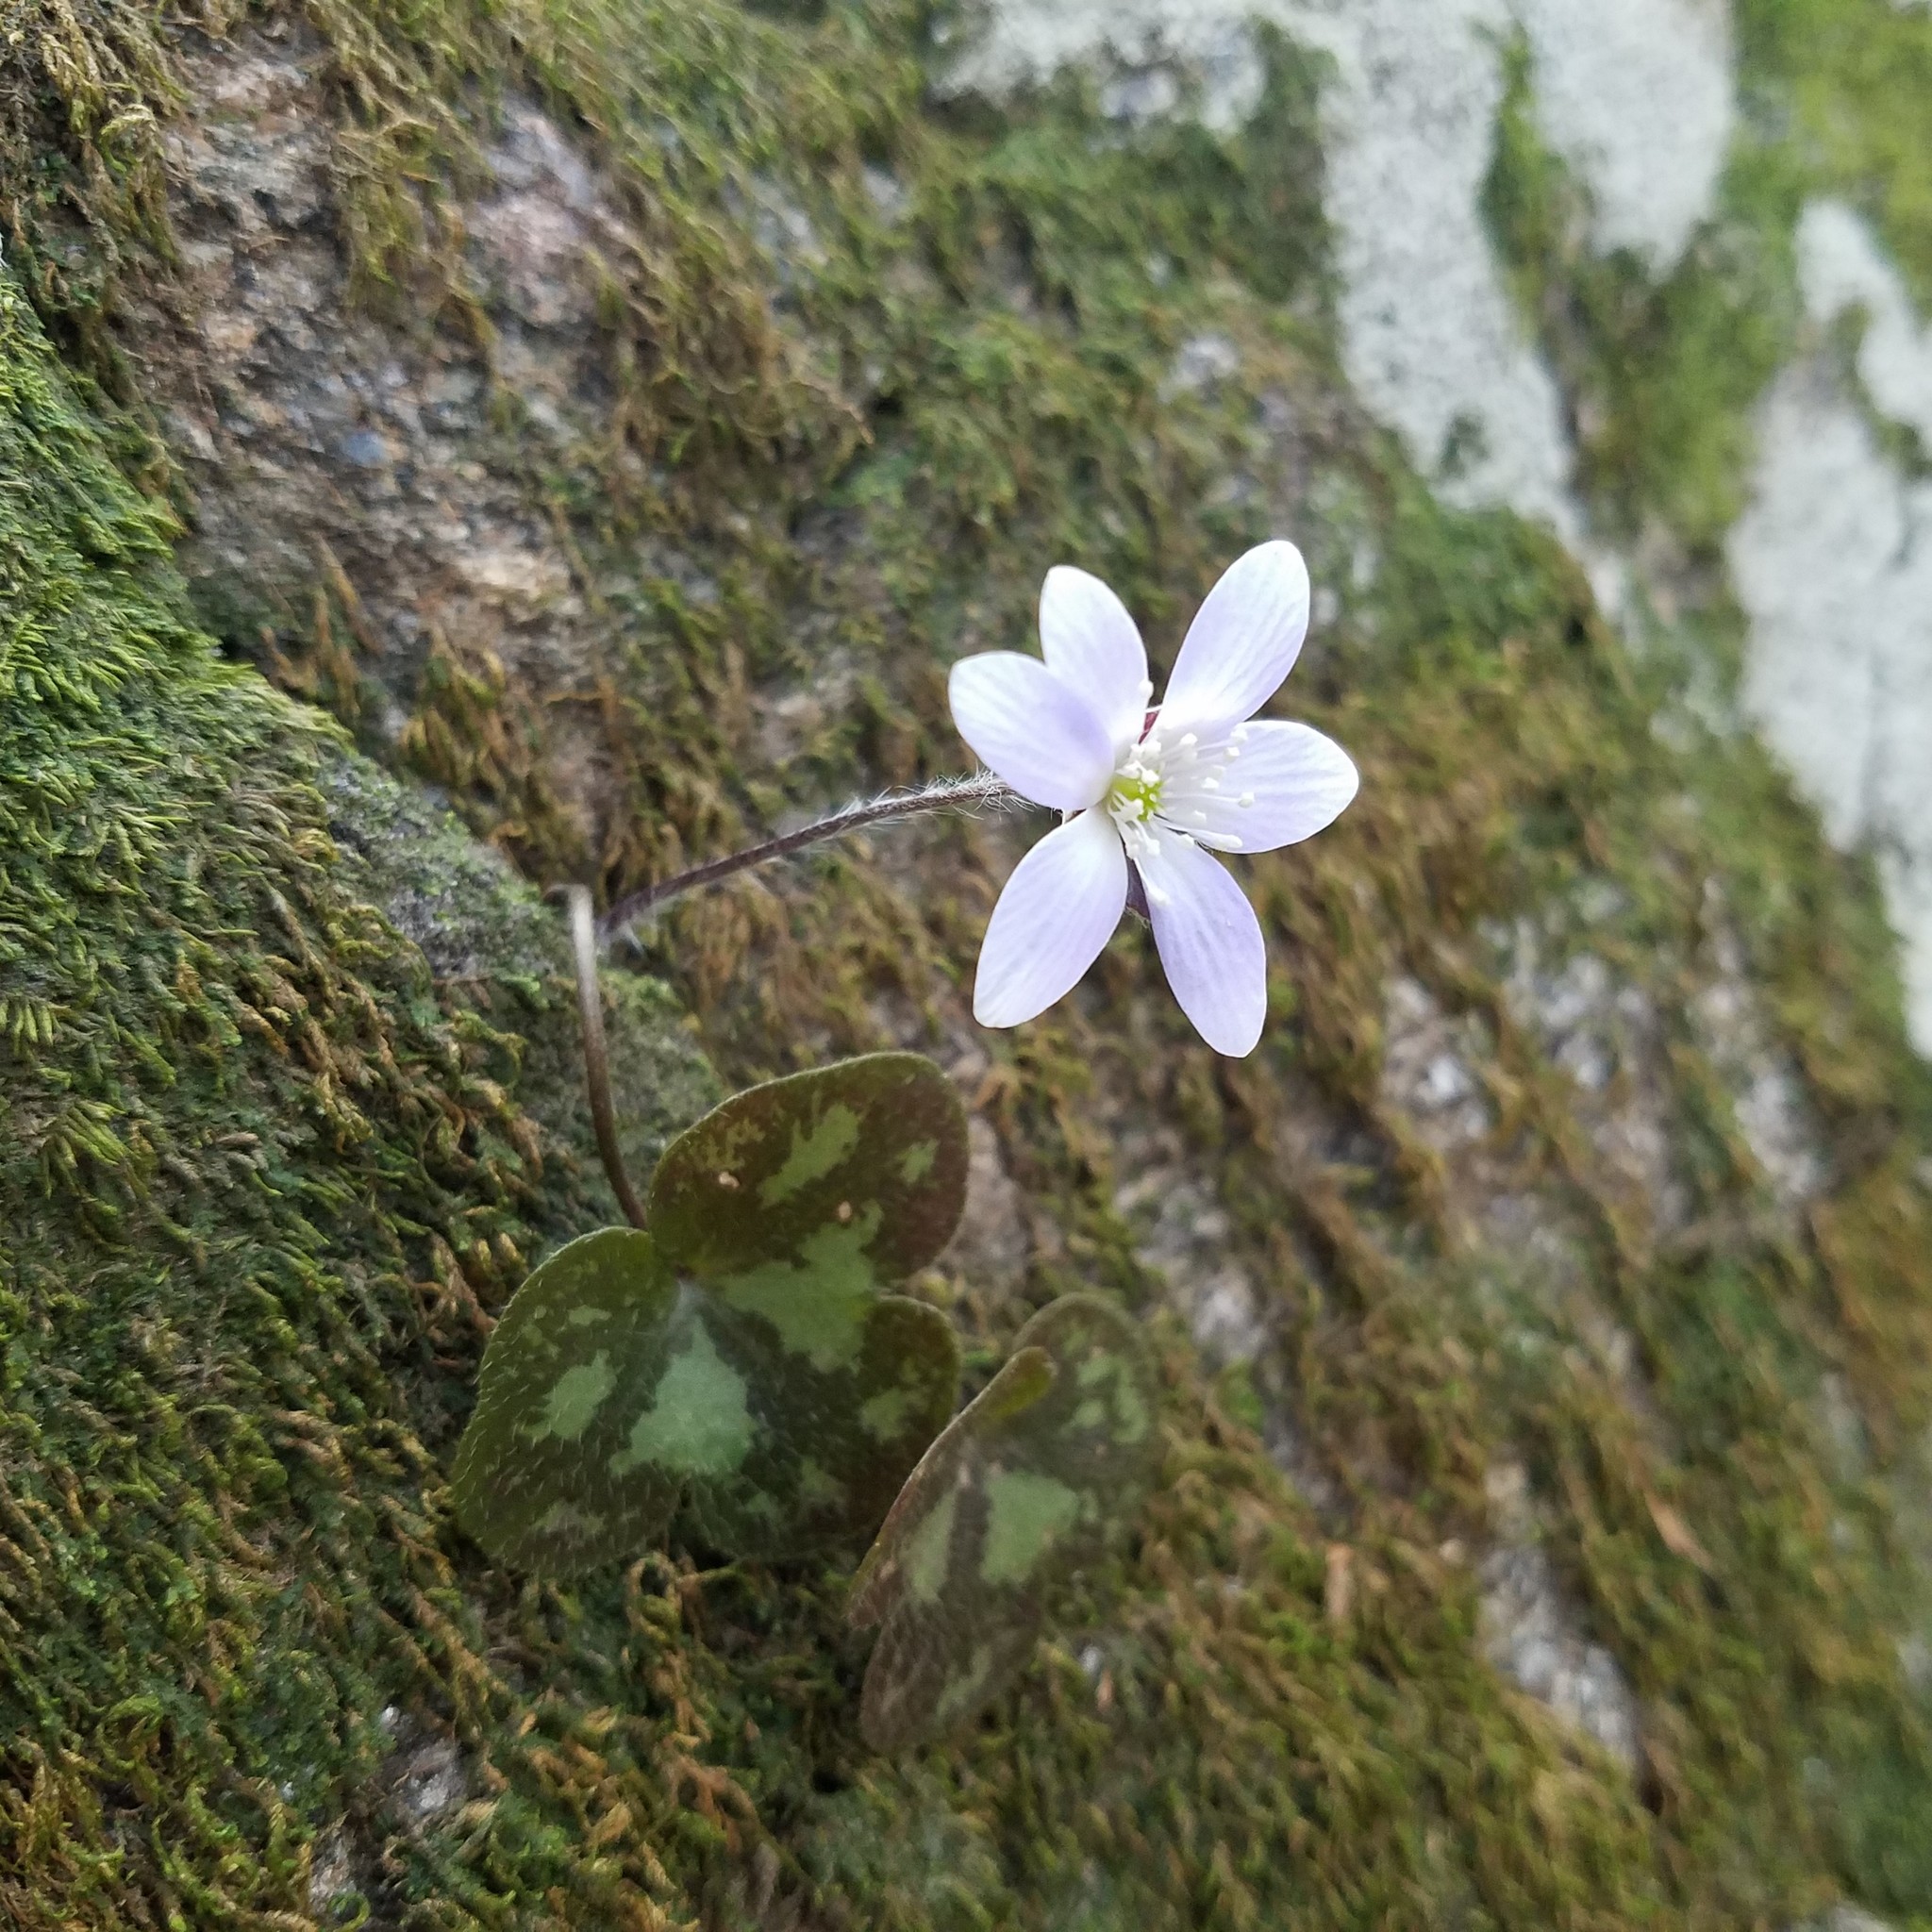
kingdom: Plantae
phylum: Tracheophyta
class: Magnoliopsida
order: Ranunculales
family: Ranunculaceae
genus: Hepatica
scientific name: Hepatica americana
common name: American hepatica
